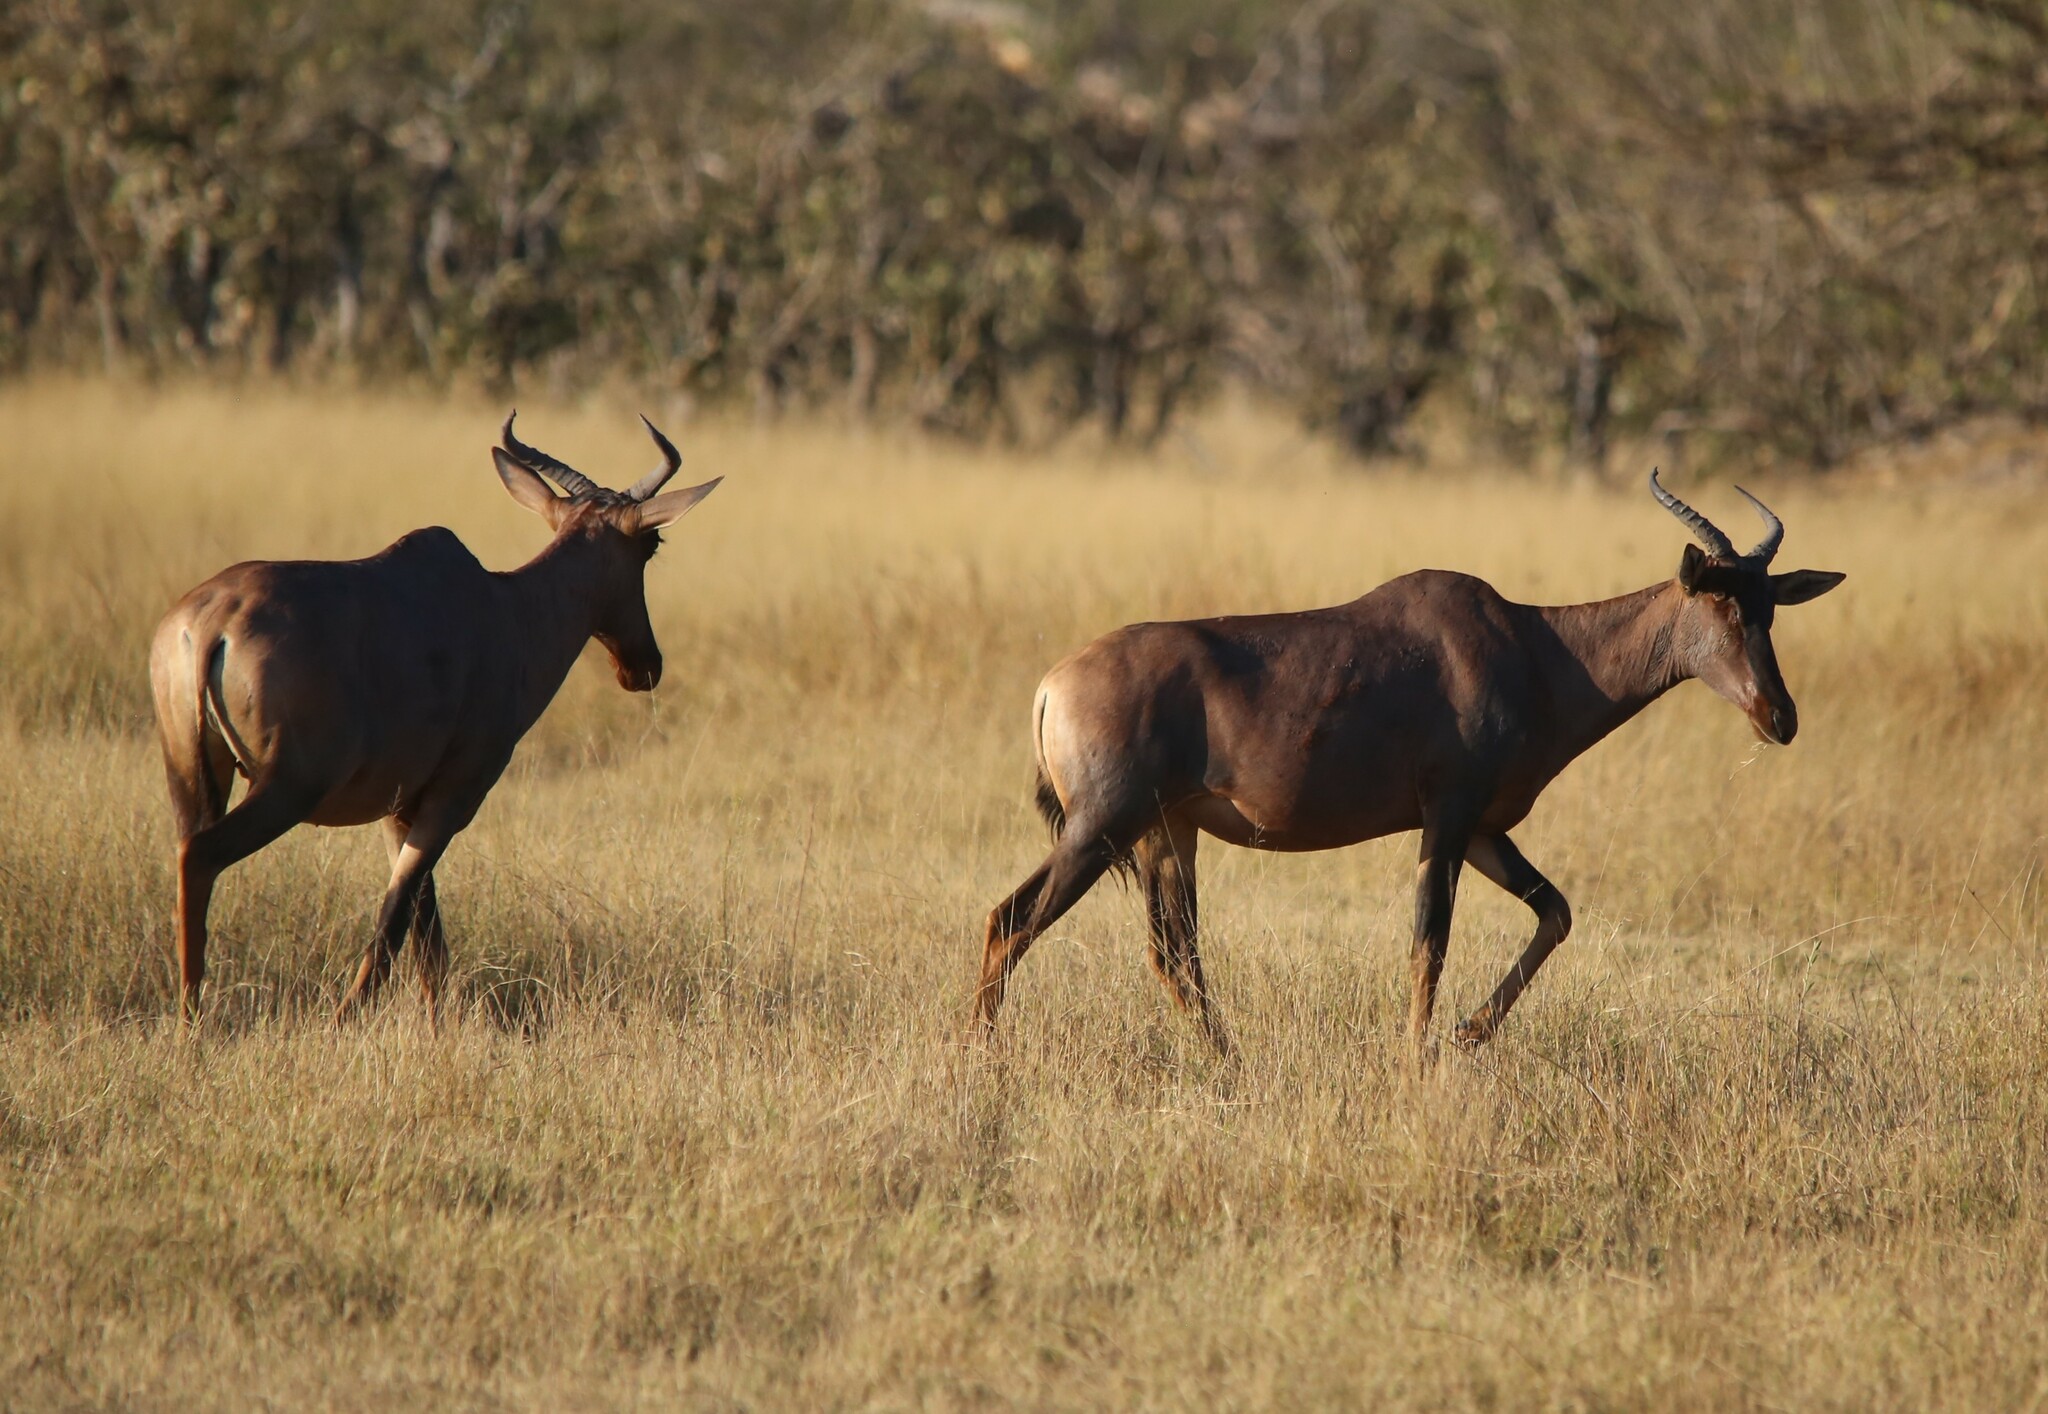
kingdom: Animalia
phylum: Chordata
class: Mammalia
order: Artiodactyla
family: Bovidae
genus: Damaliscus
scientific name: Damaliscus lunatus
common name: Common tsessebe
